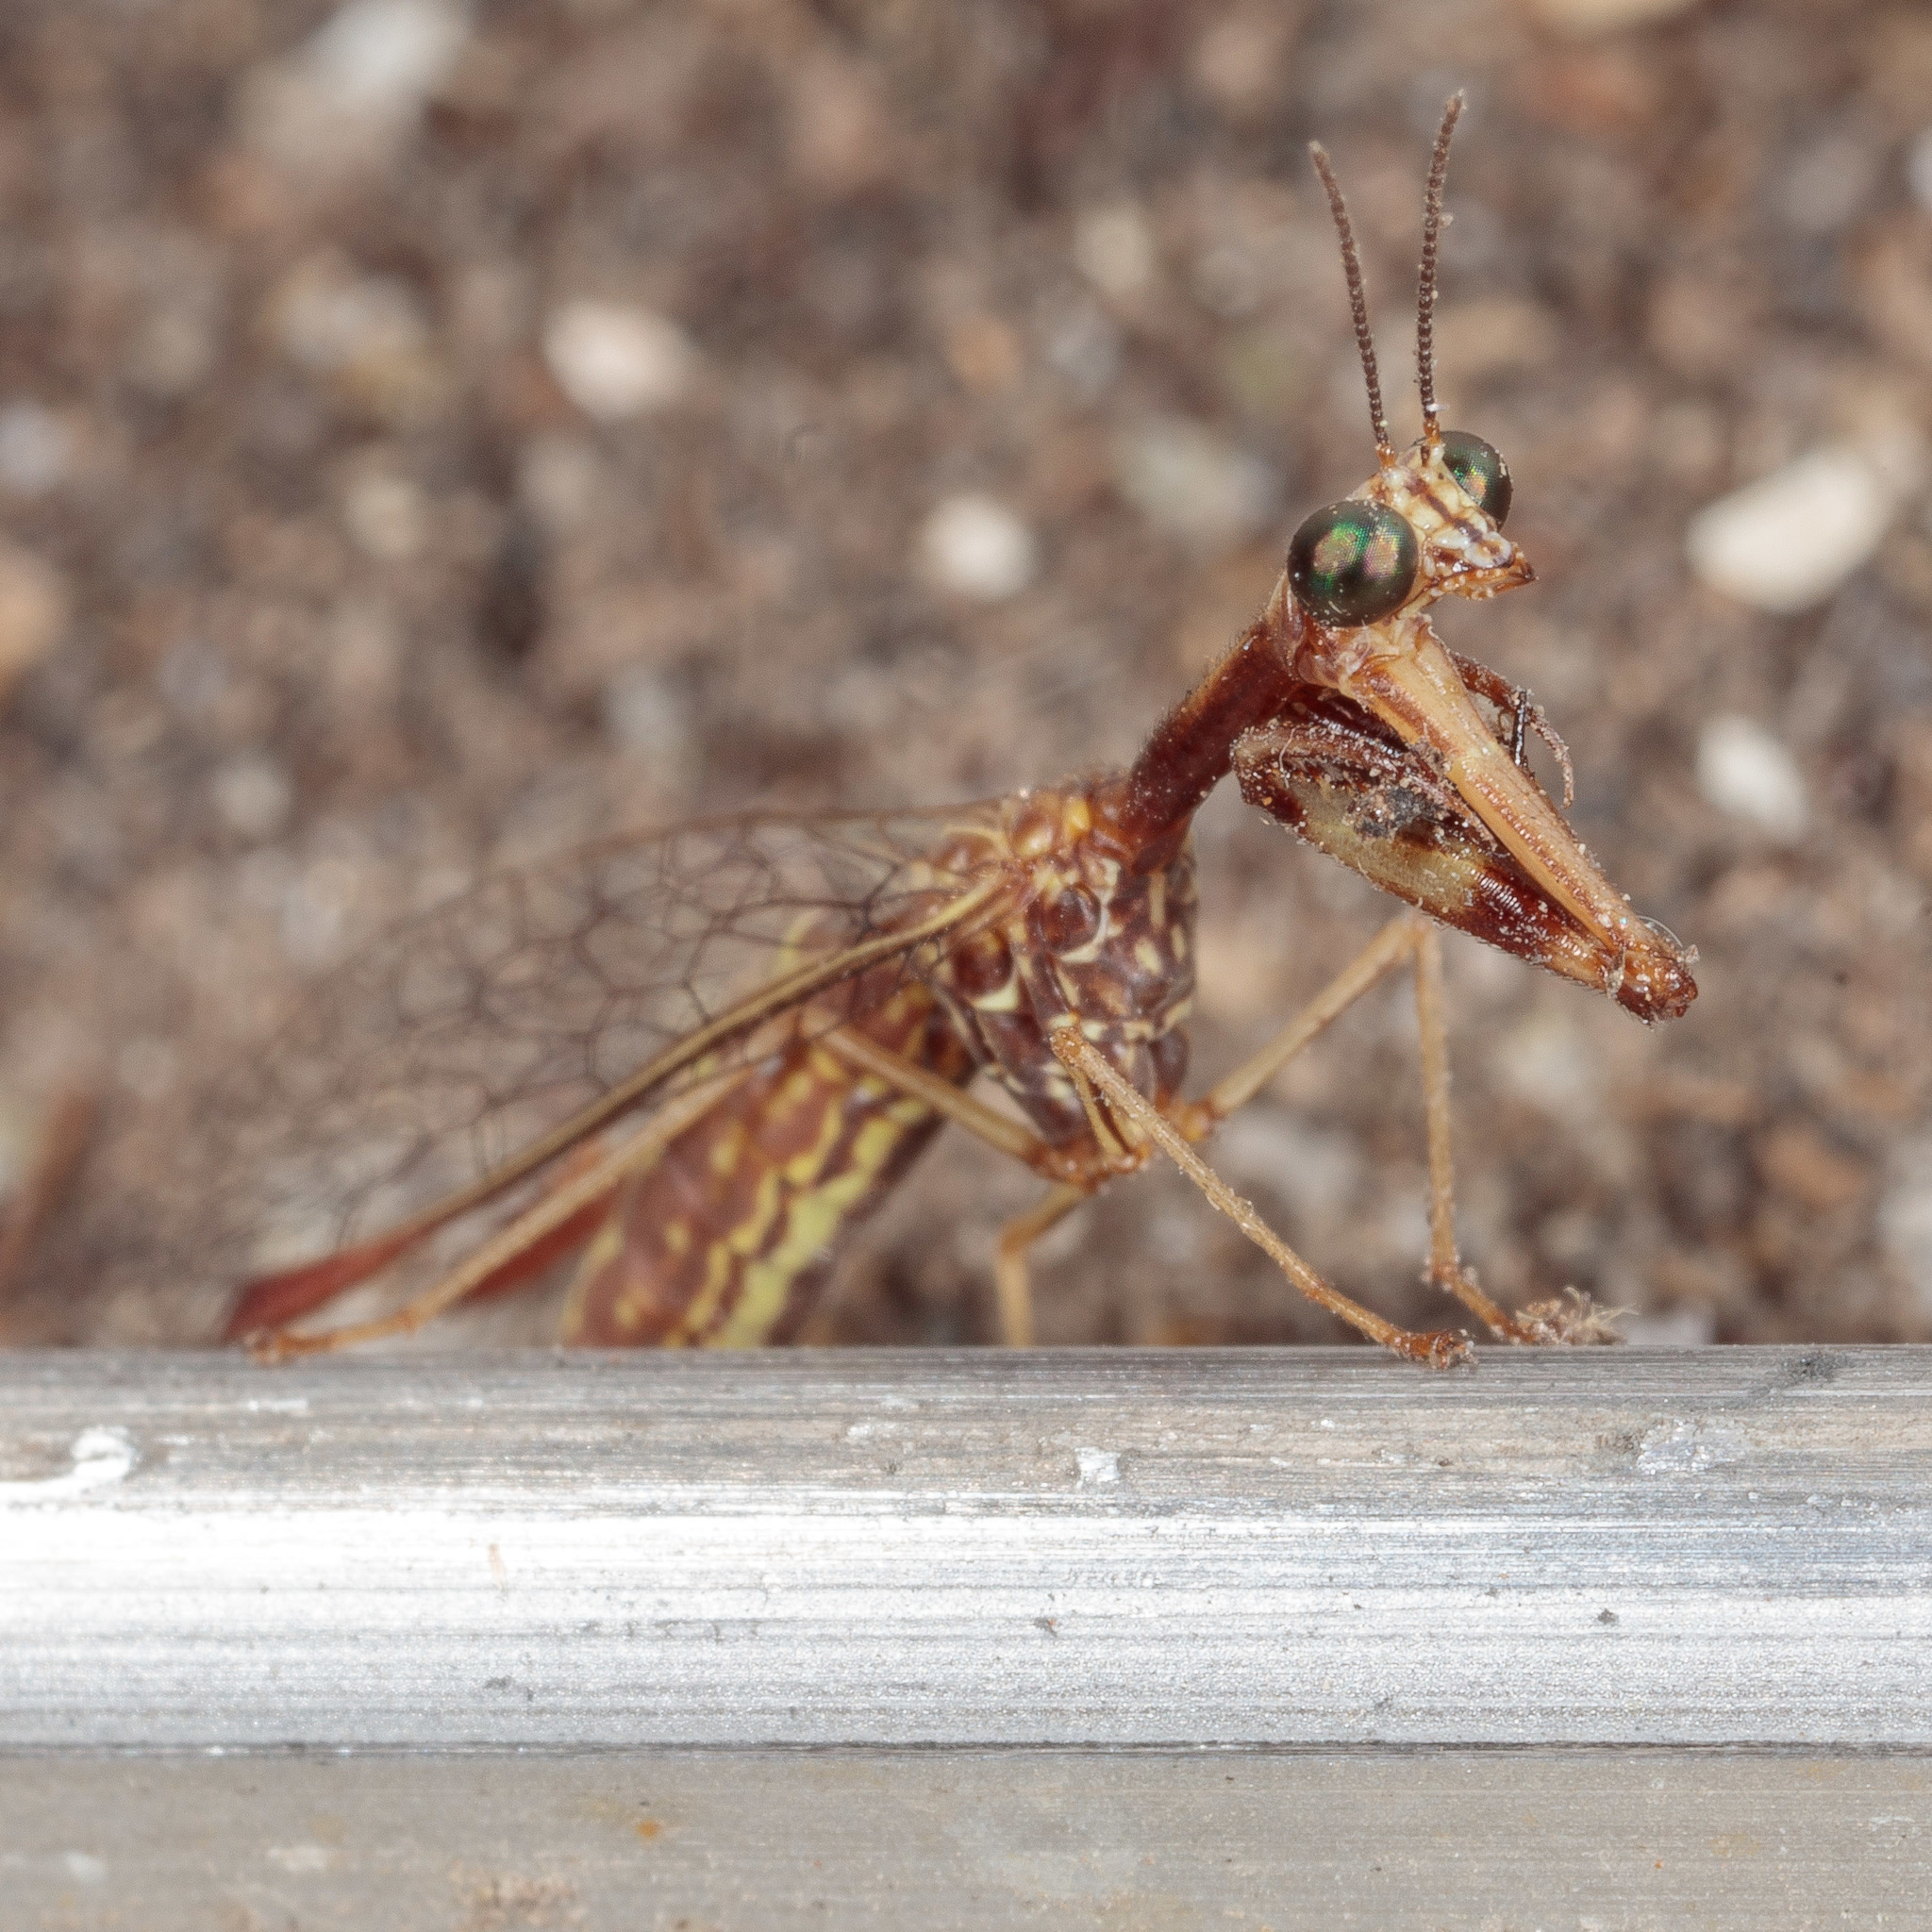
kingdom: Animalia
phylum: Arthropoda
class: Insecta
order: Neuroptera
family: Mantispidae
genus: Leptomantispa
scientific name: Leptomantispa pulchella
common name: Stevens's mantidfly
